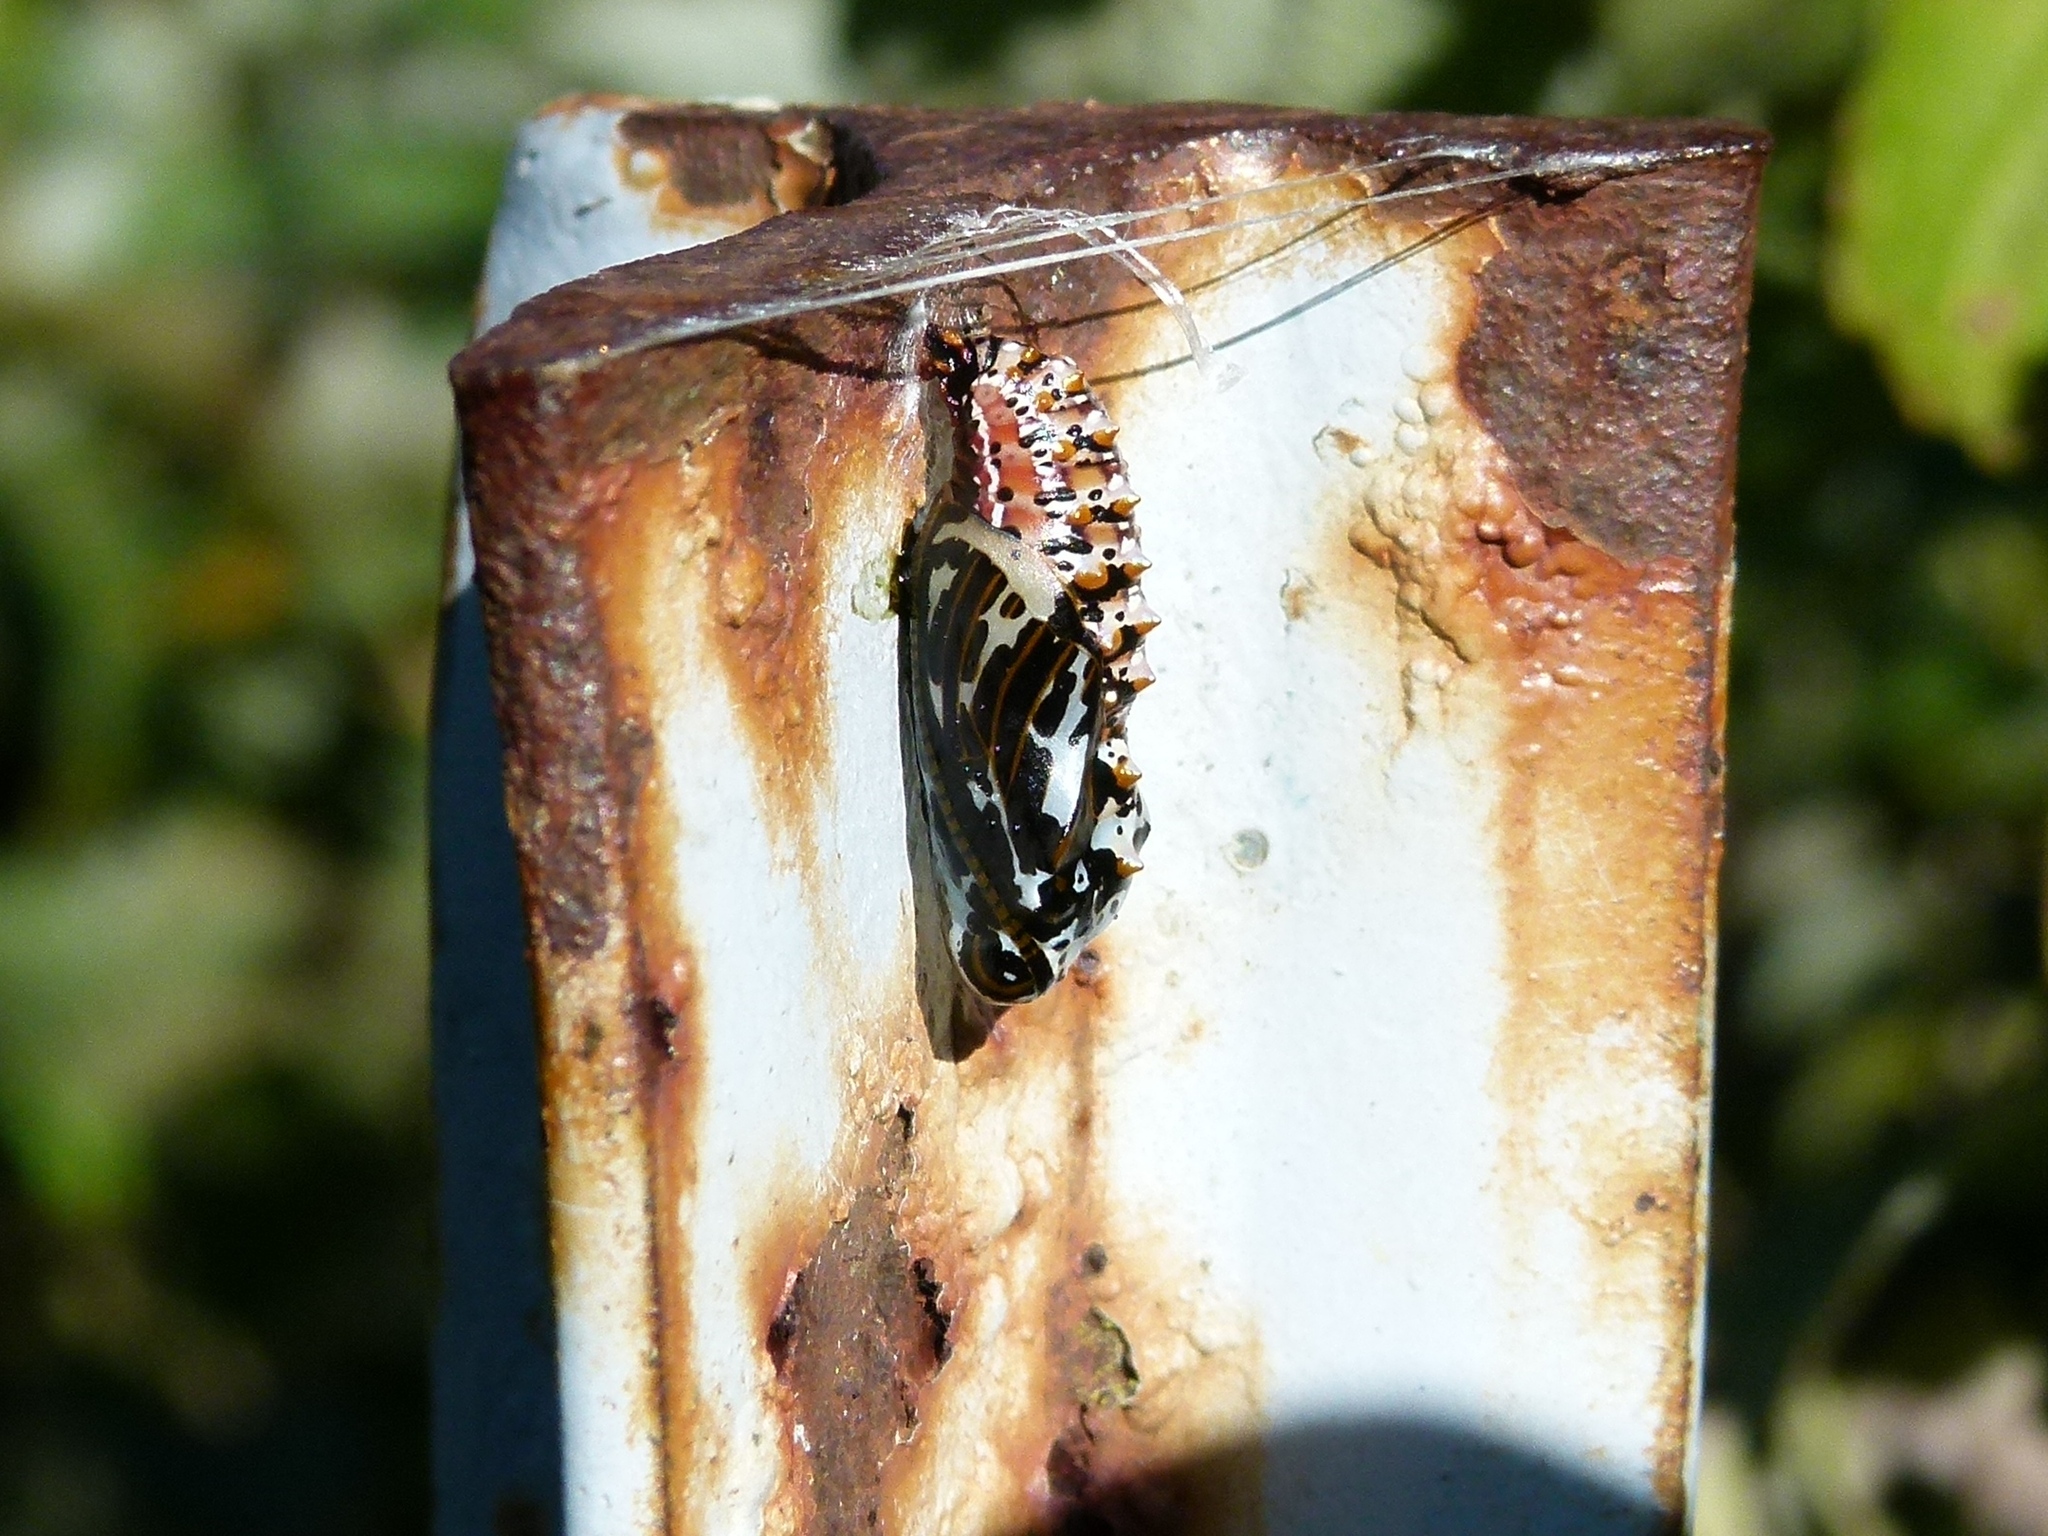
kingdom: Animalia
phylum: Arthropoda
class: Insecta
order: Lepidoptera
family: Nymphalidae
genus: Euptoieta
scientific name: Euptoieta claudia
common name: Variegated fritillary
